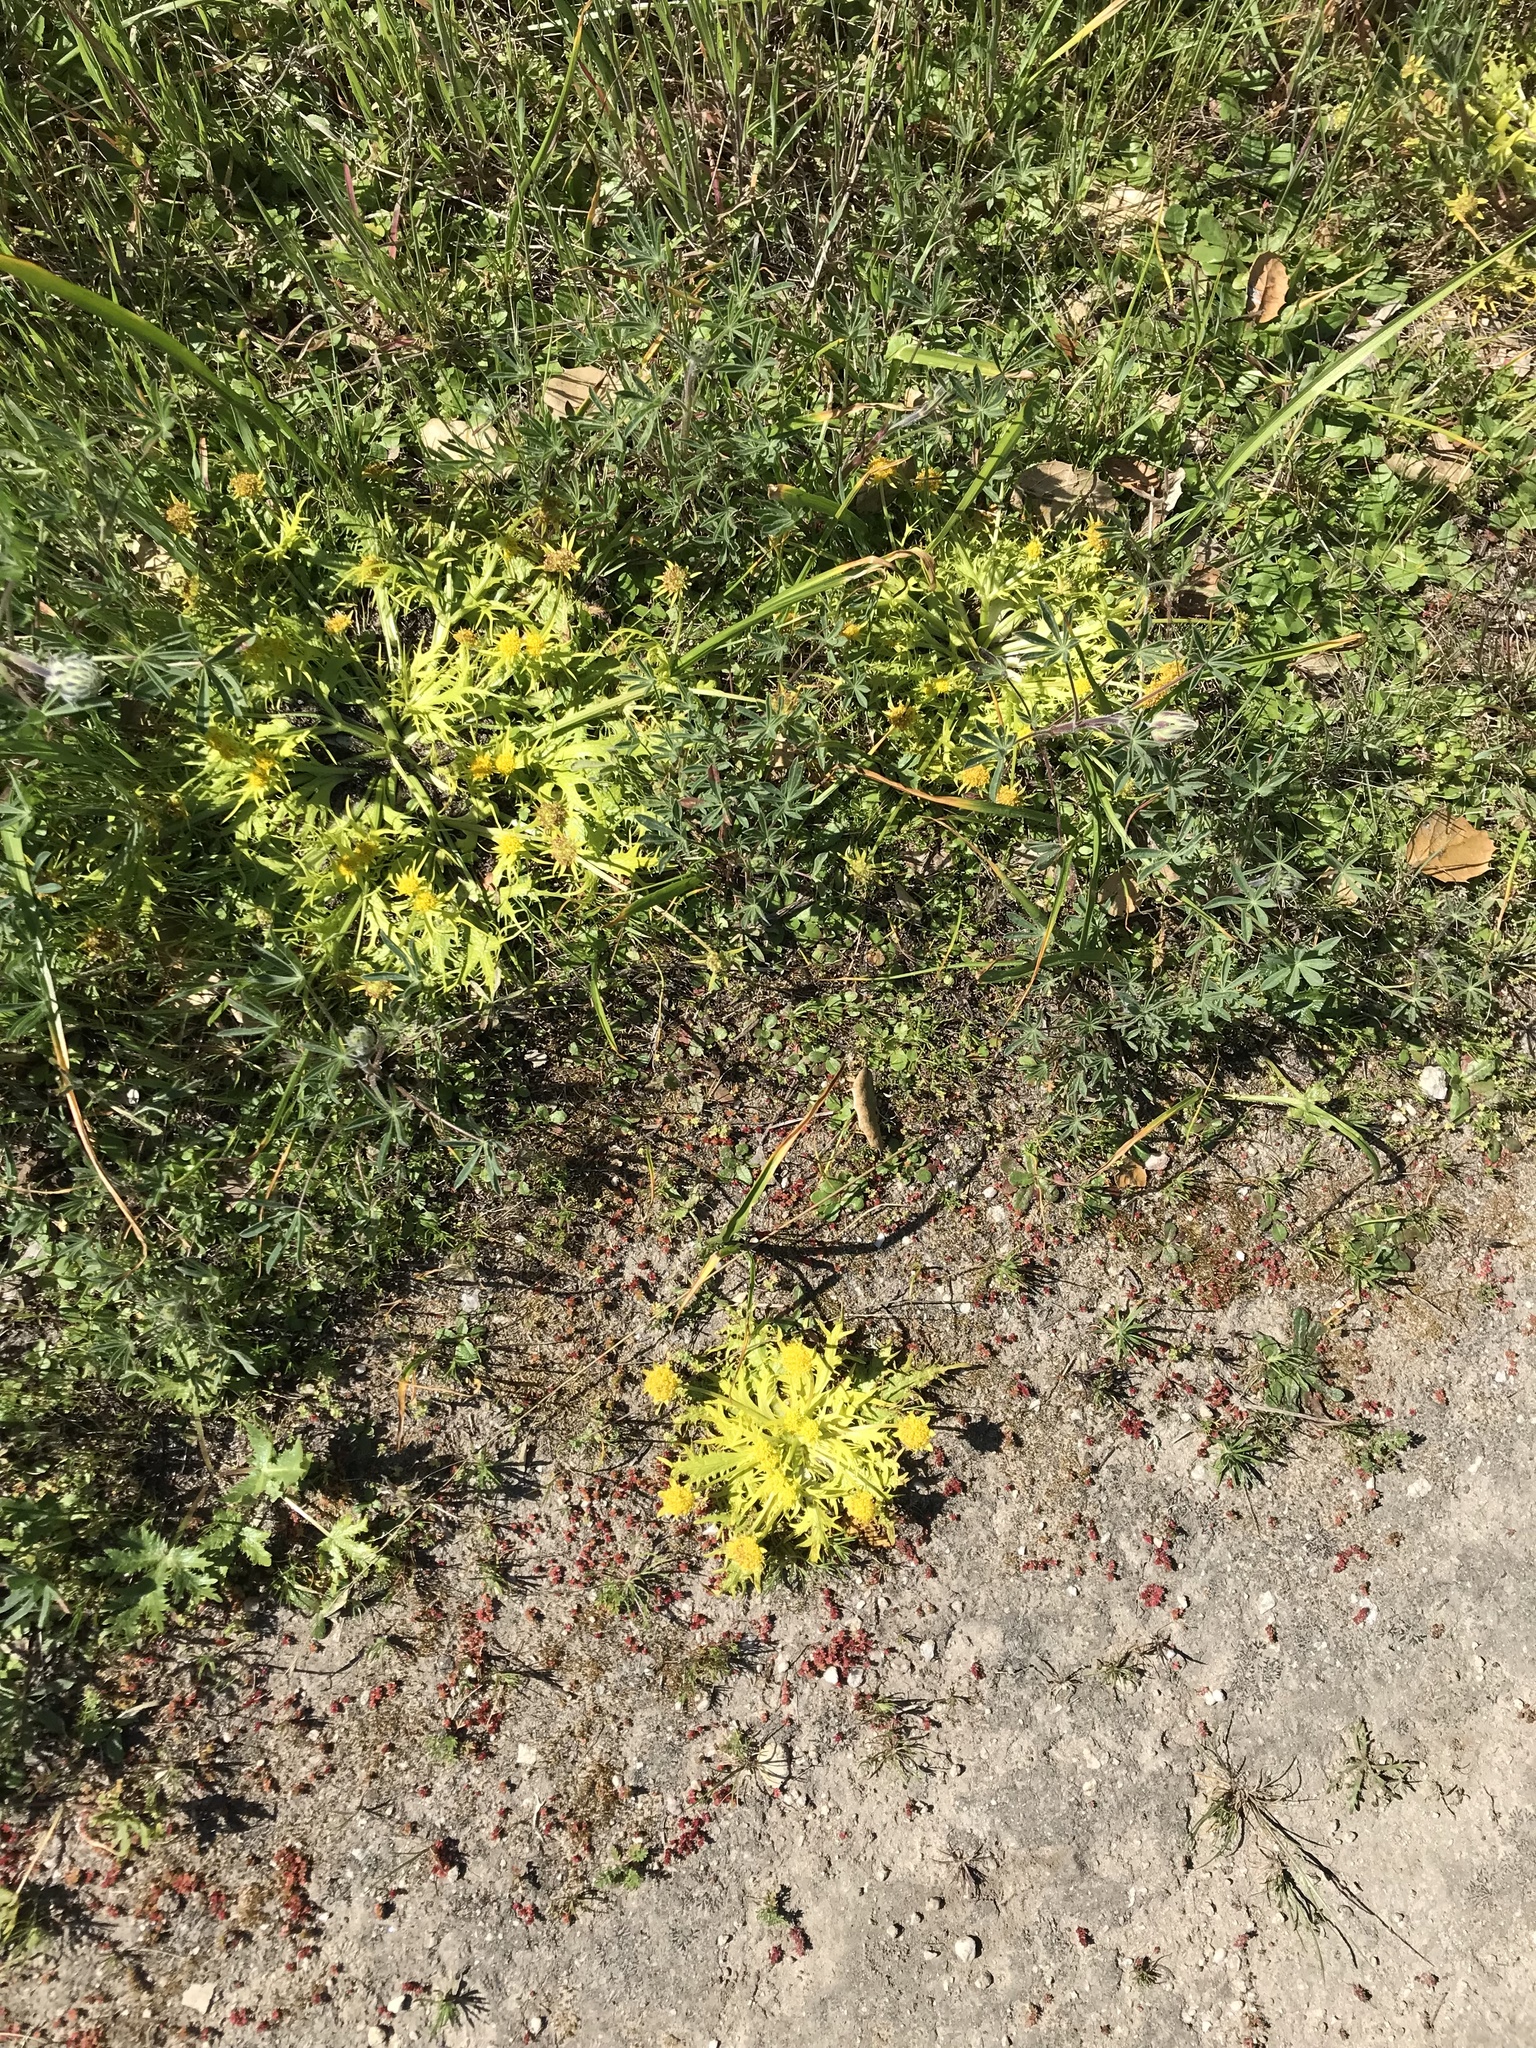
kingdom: Plantae
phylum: Tracheophyta
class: Magnoliopsida
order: Apiales
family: Apiaceae
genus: Sanicula
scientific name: Sanicula arctopoides
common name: Footsteps-of-spring
